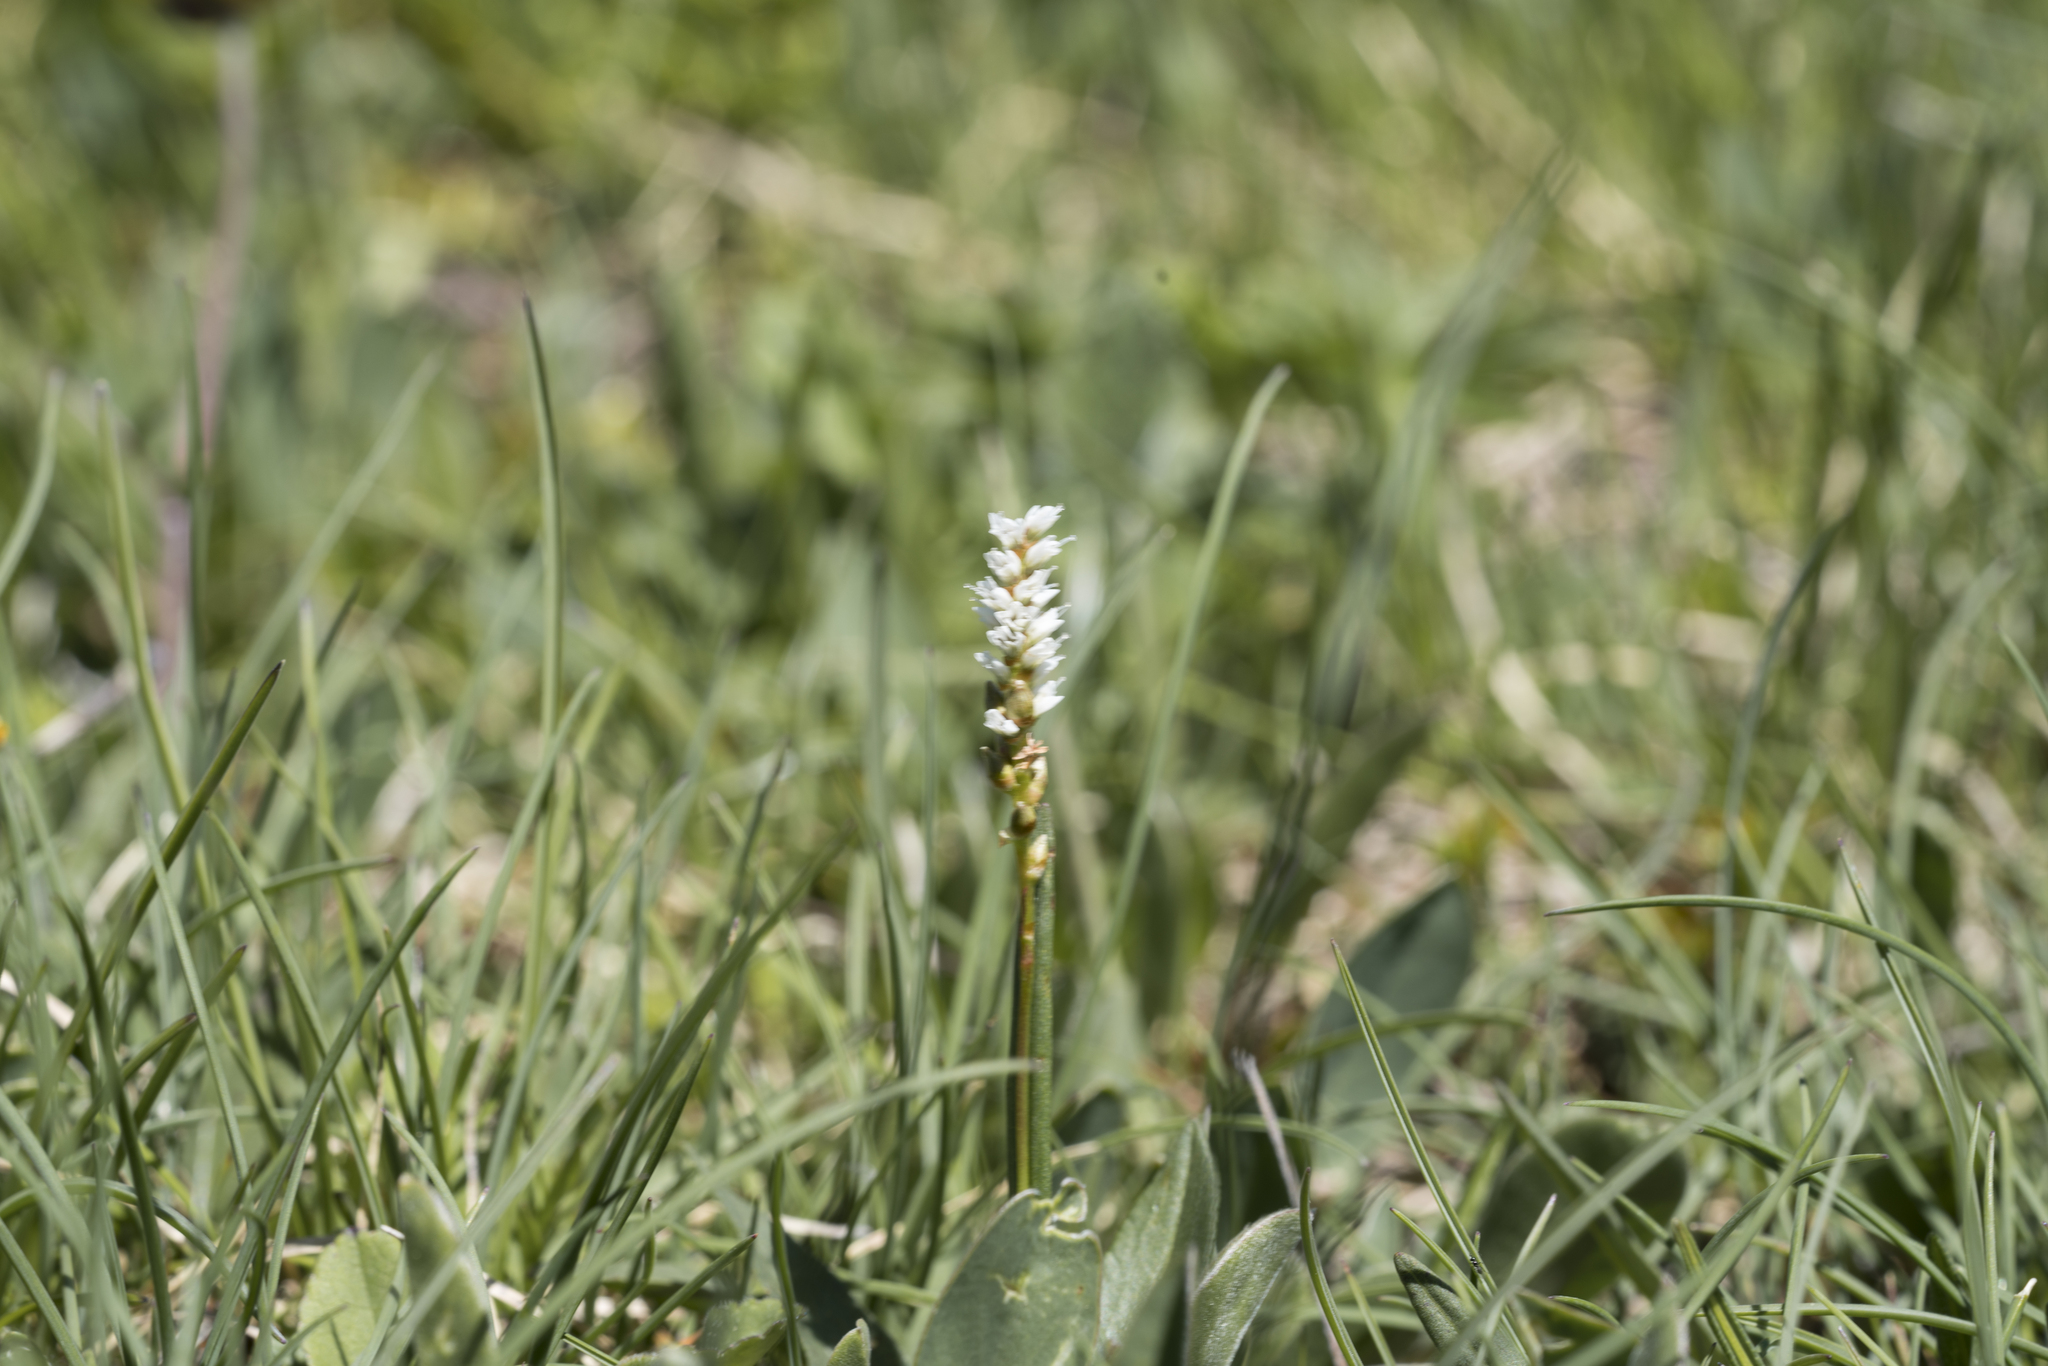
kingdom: Plantae
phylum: Tracheophyta
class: Magnoliopsida
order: Caryophyllales
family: Polygonaceae
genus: Bistorta
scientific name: Bistorta vivipara
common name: Alpine bistort
